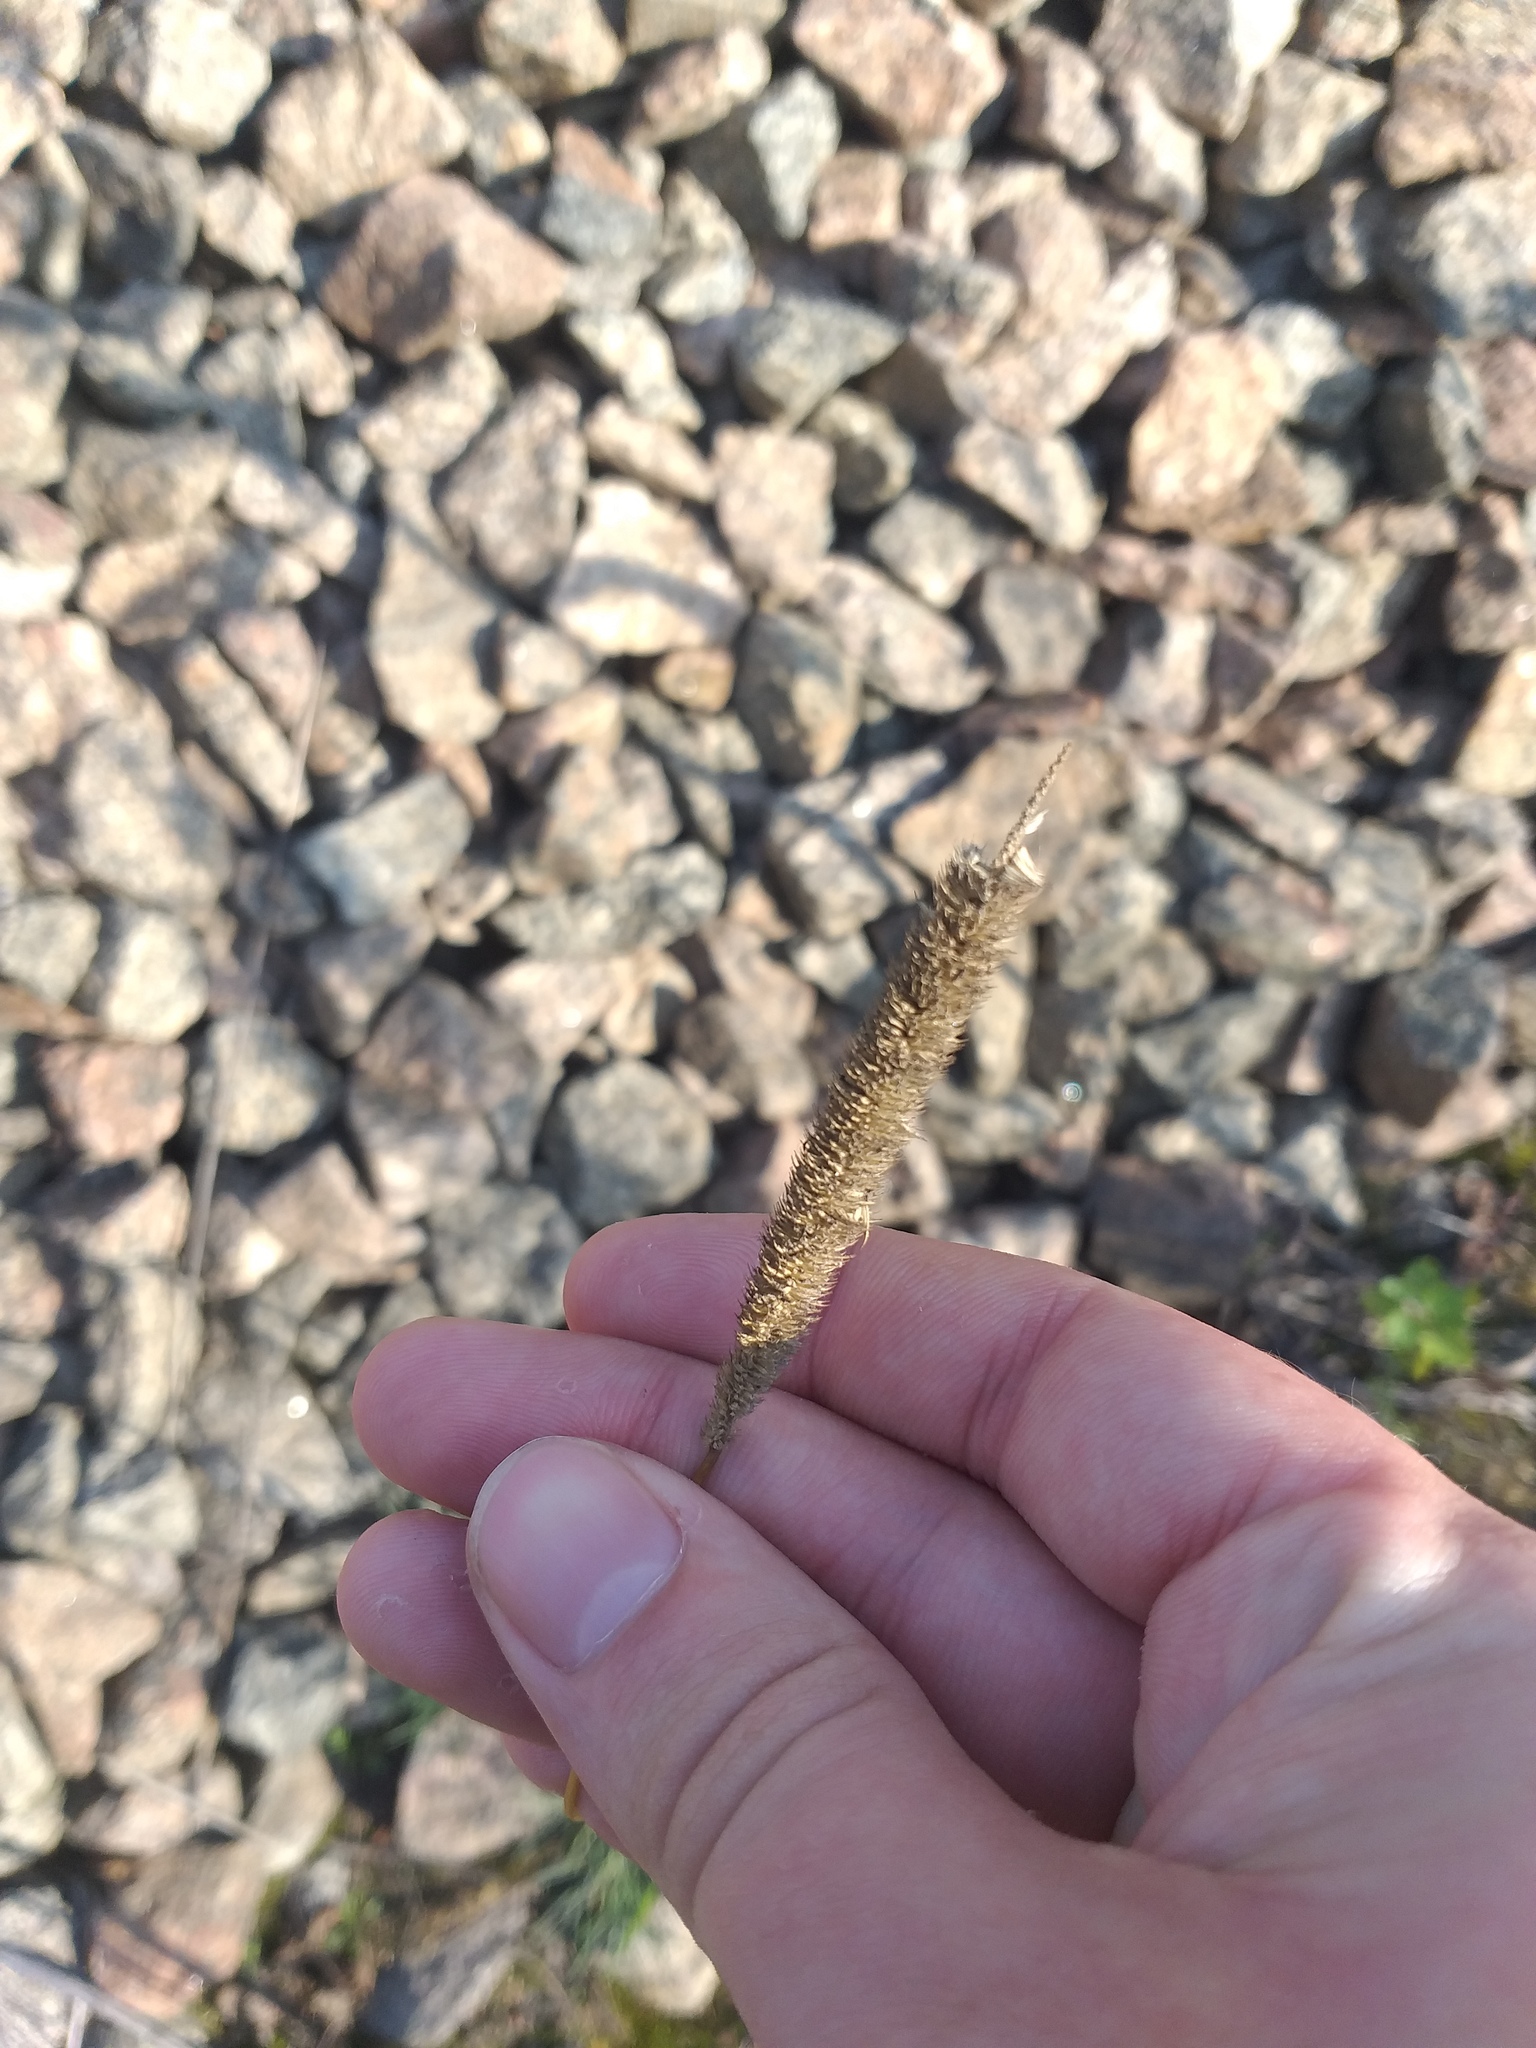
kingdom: Plantae
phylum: Tracheophyta
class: Liliopsida
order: Poales
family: Poaceae
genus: Phleum
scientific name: Phleum pratense
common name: Timothy grass
